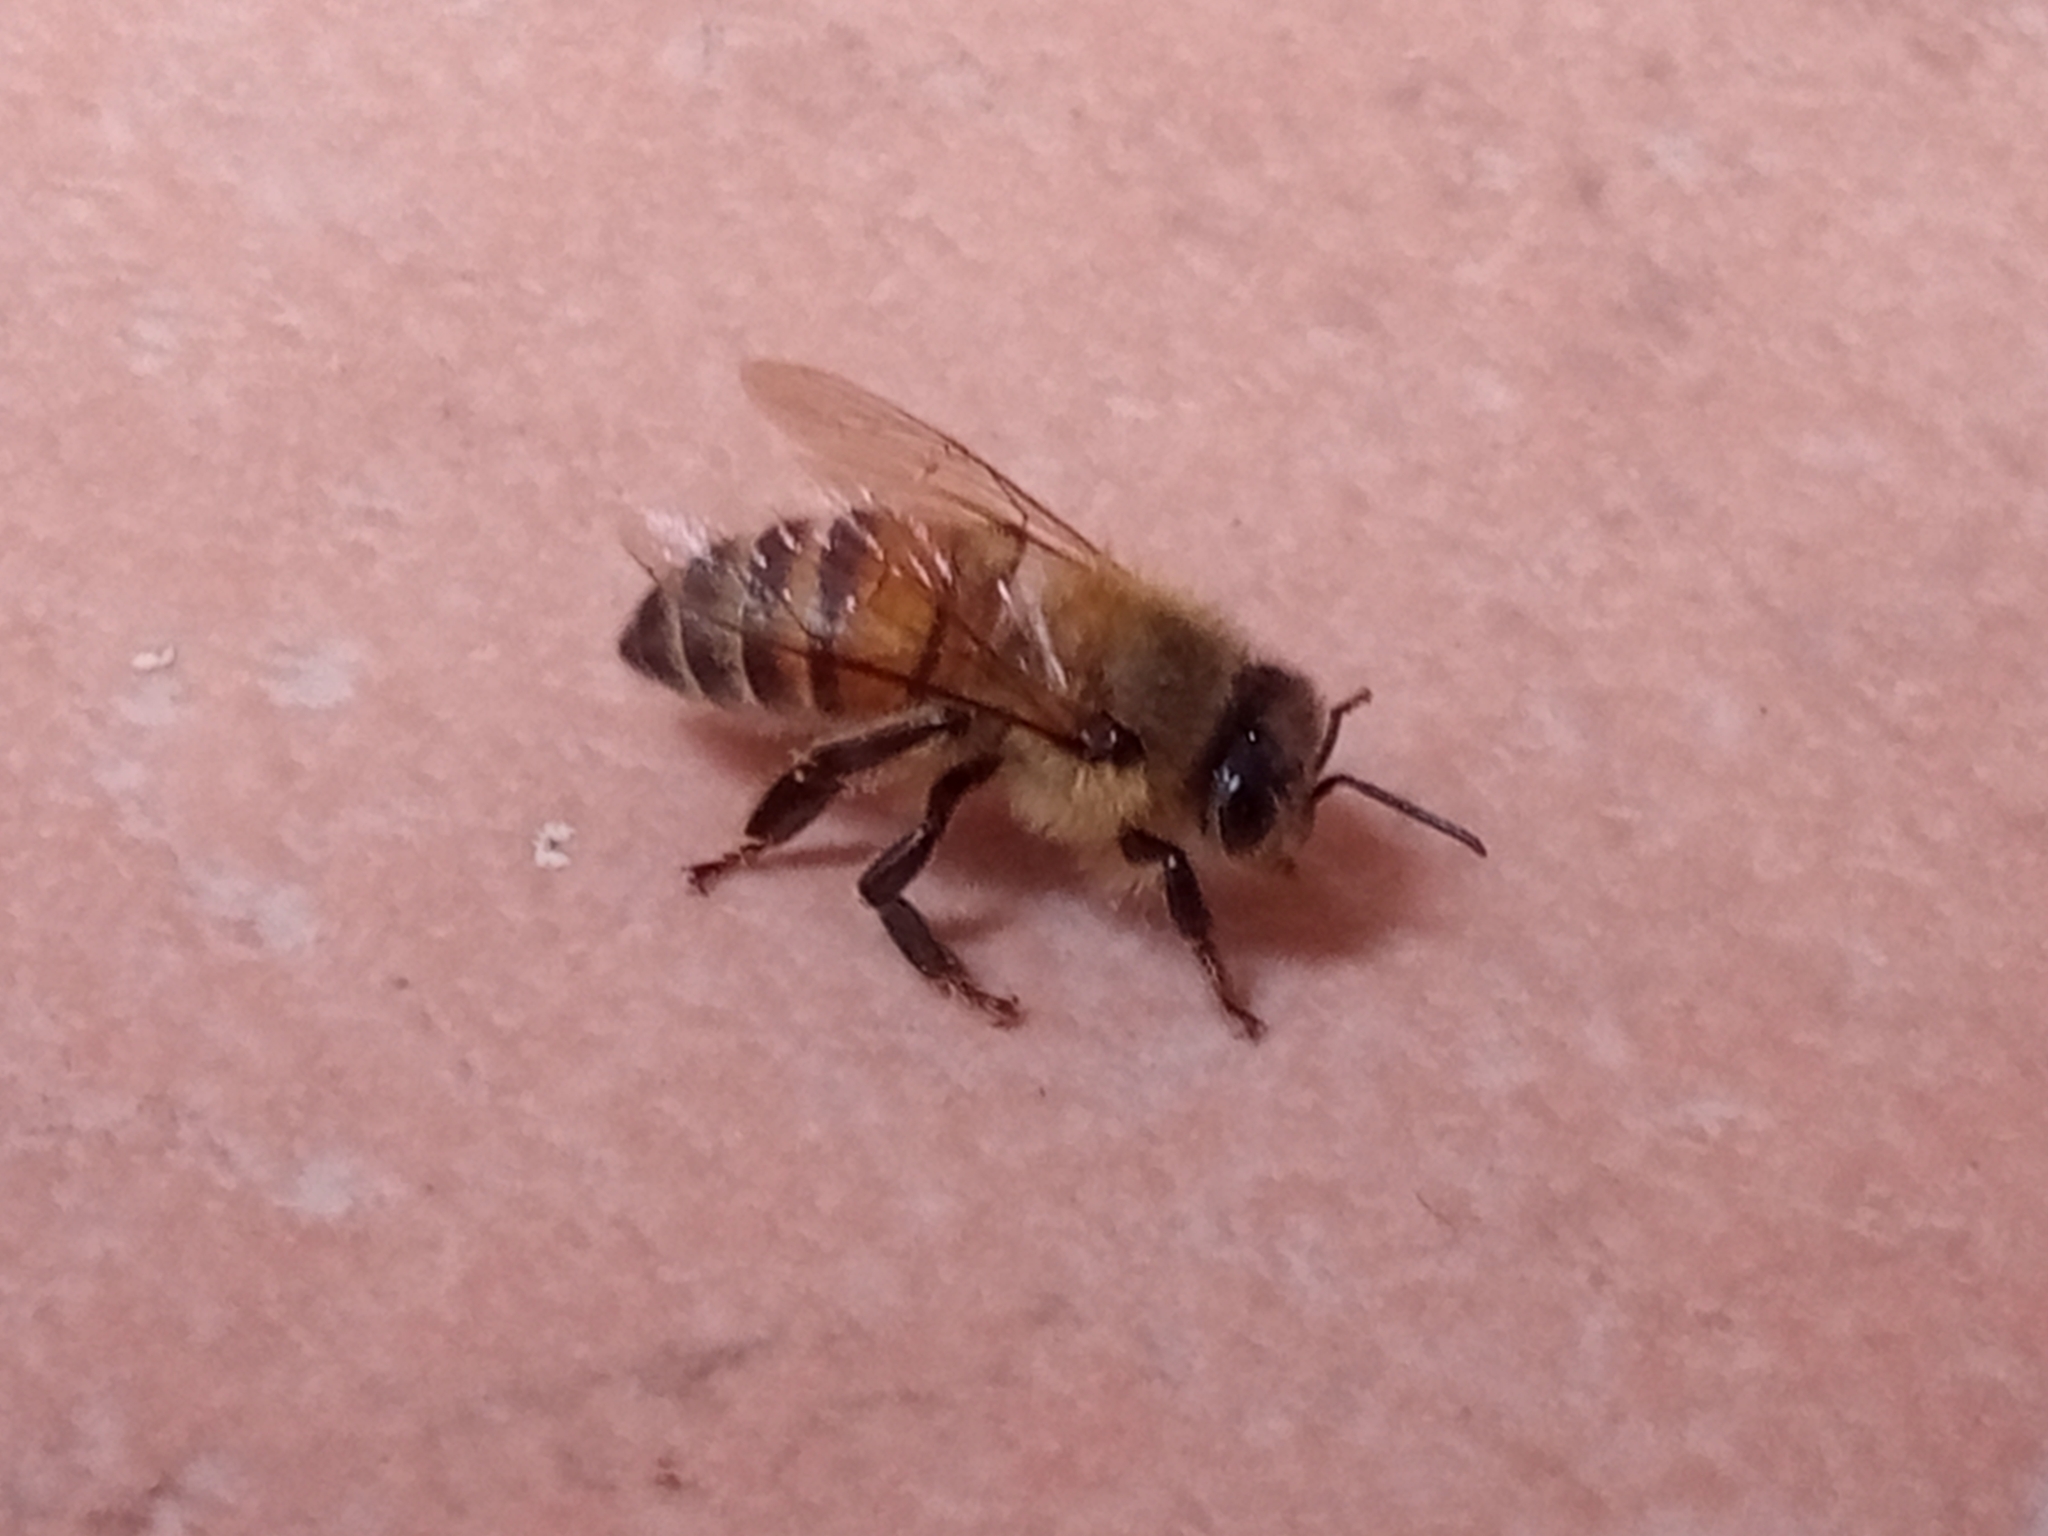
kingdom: Animalia
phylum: Arthropoda
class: Insecta
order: Hymenoptera
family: Apidae
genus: Apis
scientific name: Apis mellifera
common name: Honey bee
